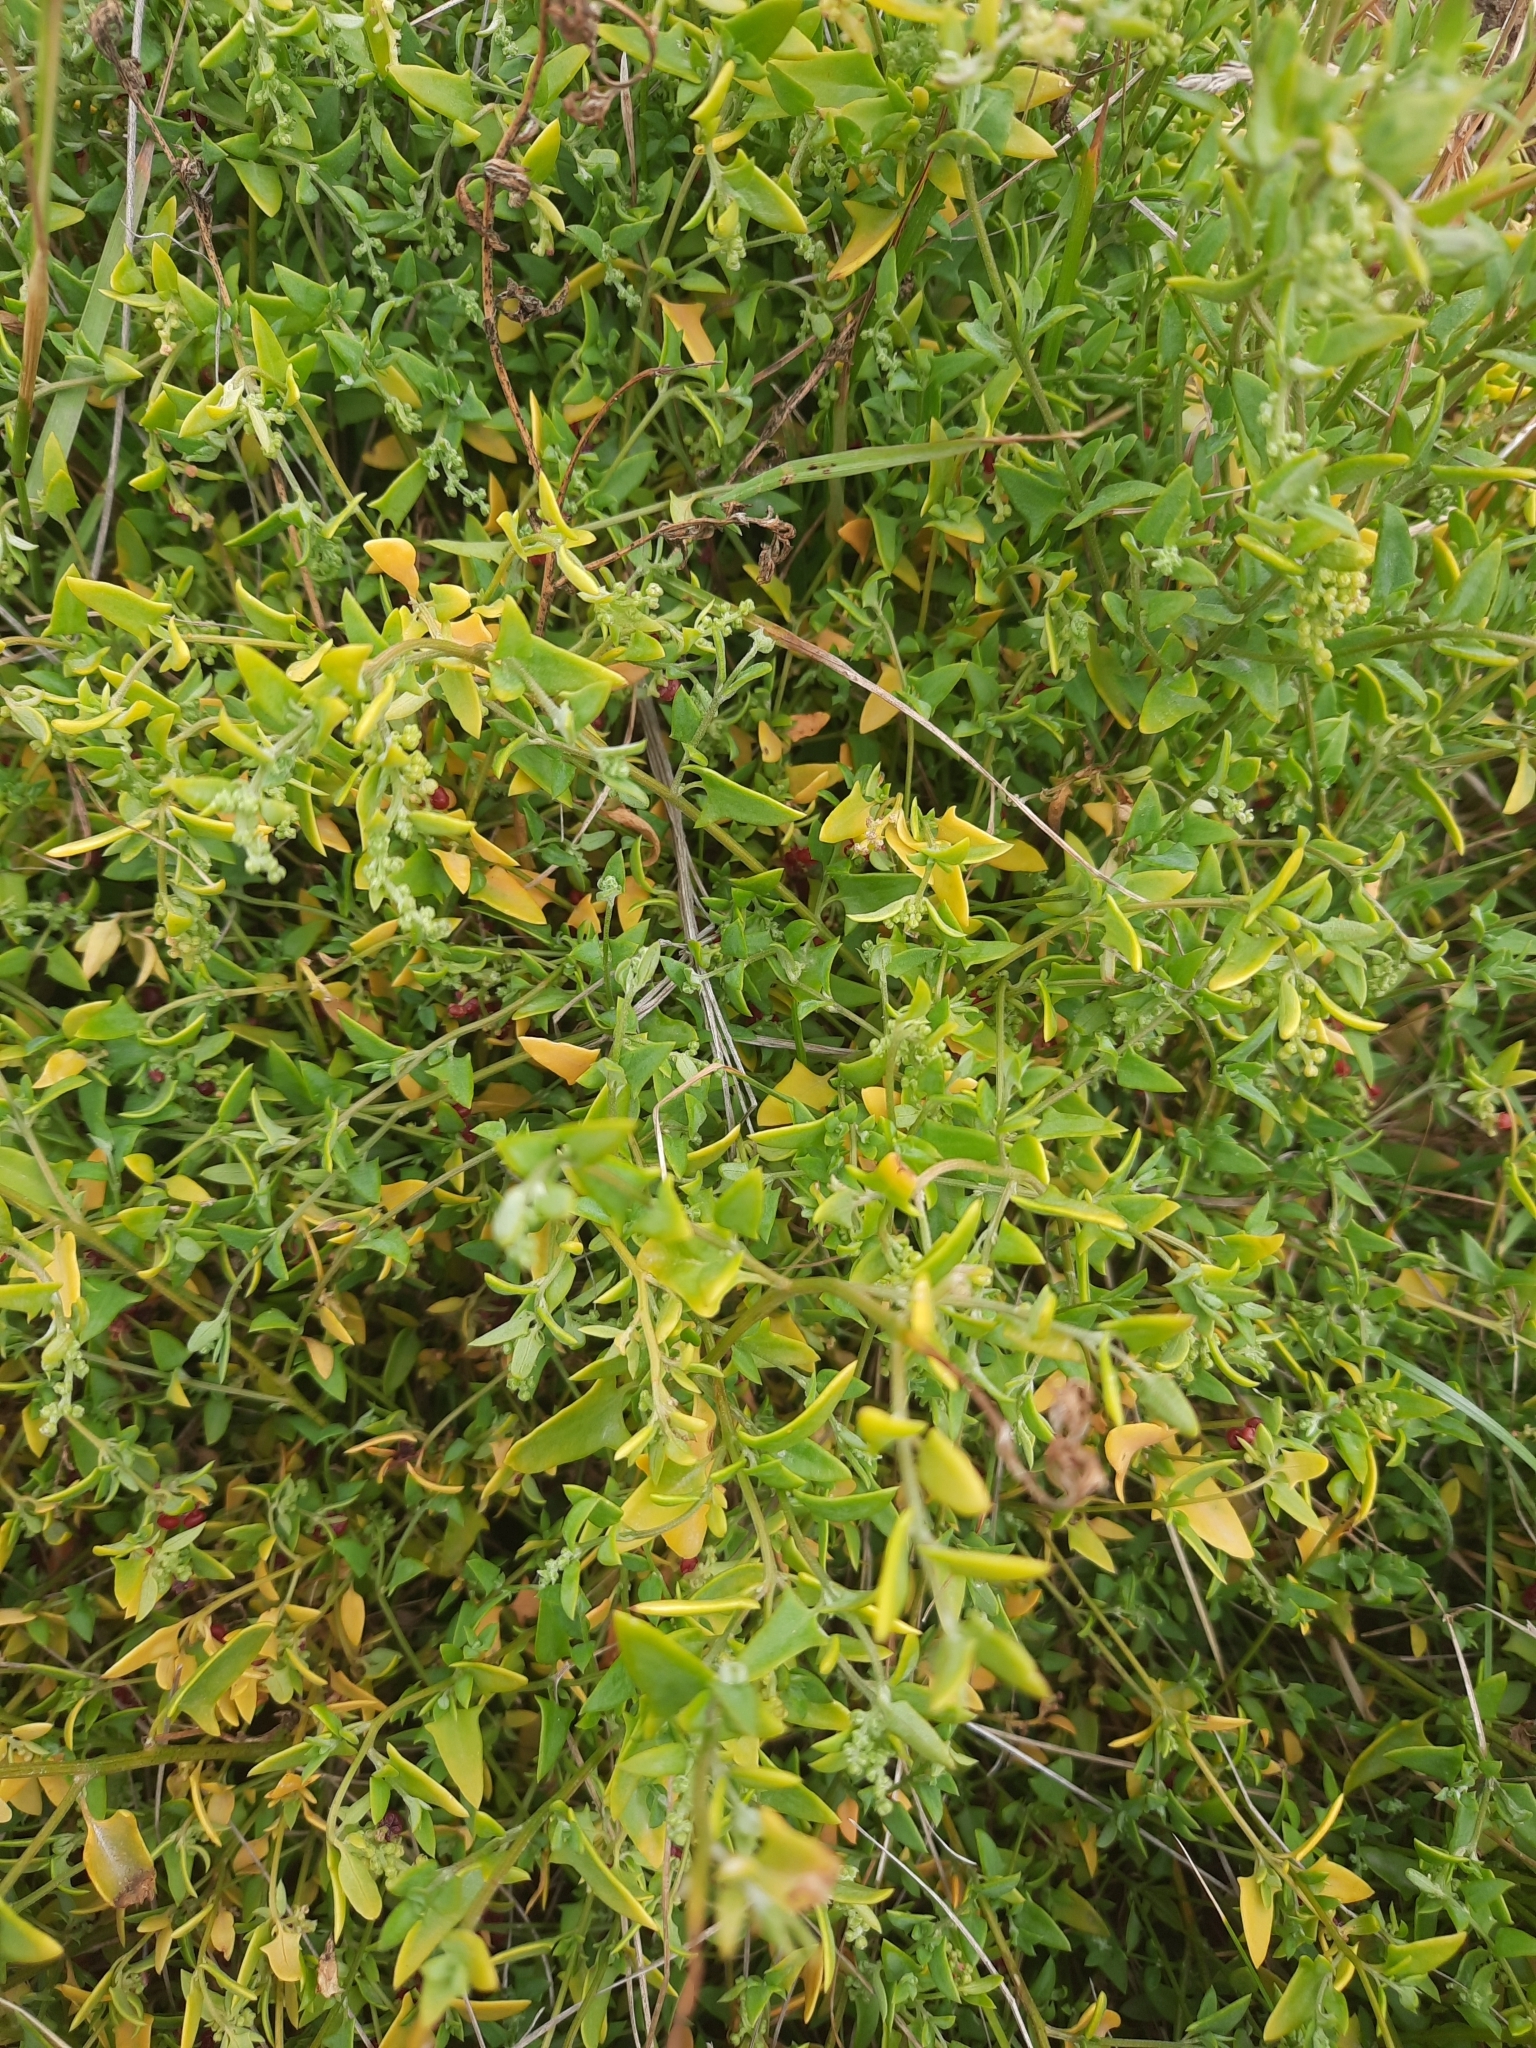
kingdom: Plantae
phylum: Tracheophyta
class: Magnoliopsida
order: Caryophyllales
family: Amaranthaceae
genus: Chenopodium
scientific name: Chenopodium nutans
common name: Climbing-saltbush
